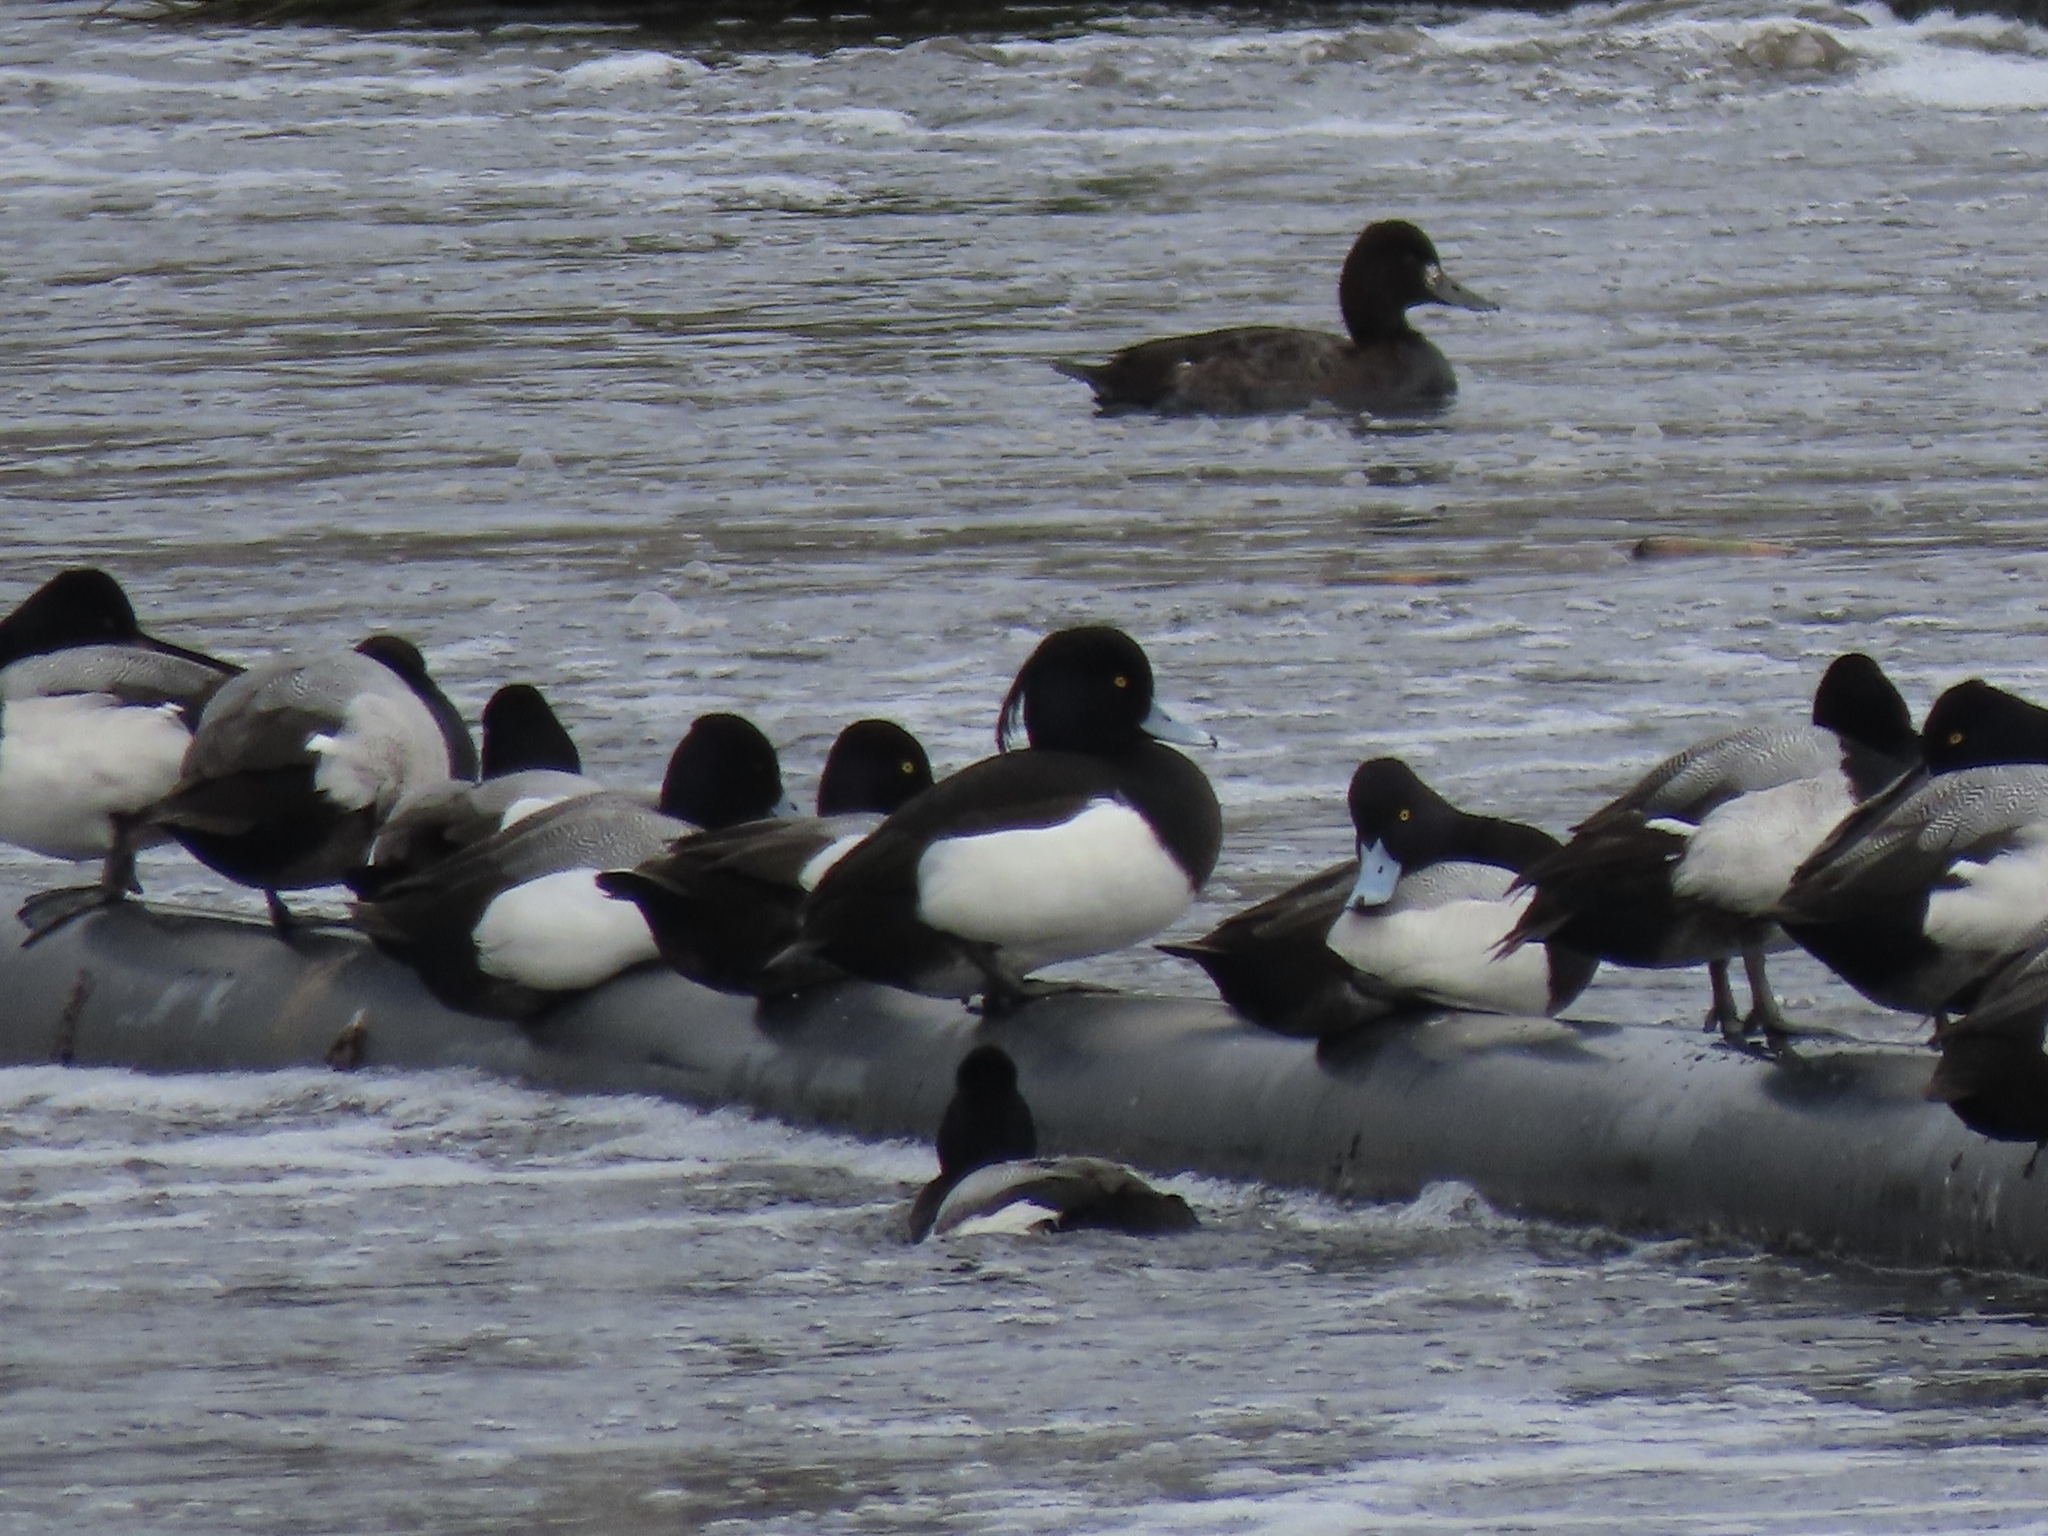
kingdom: Animalia
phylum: Chordata
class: Aves
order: Anseriformes
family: Anatidae
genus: Aythya
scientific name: Aythya fuligula
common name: Tufted duck
